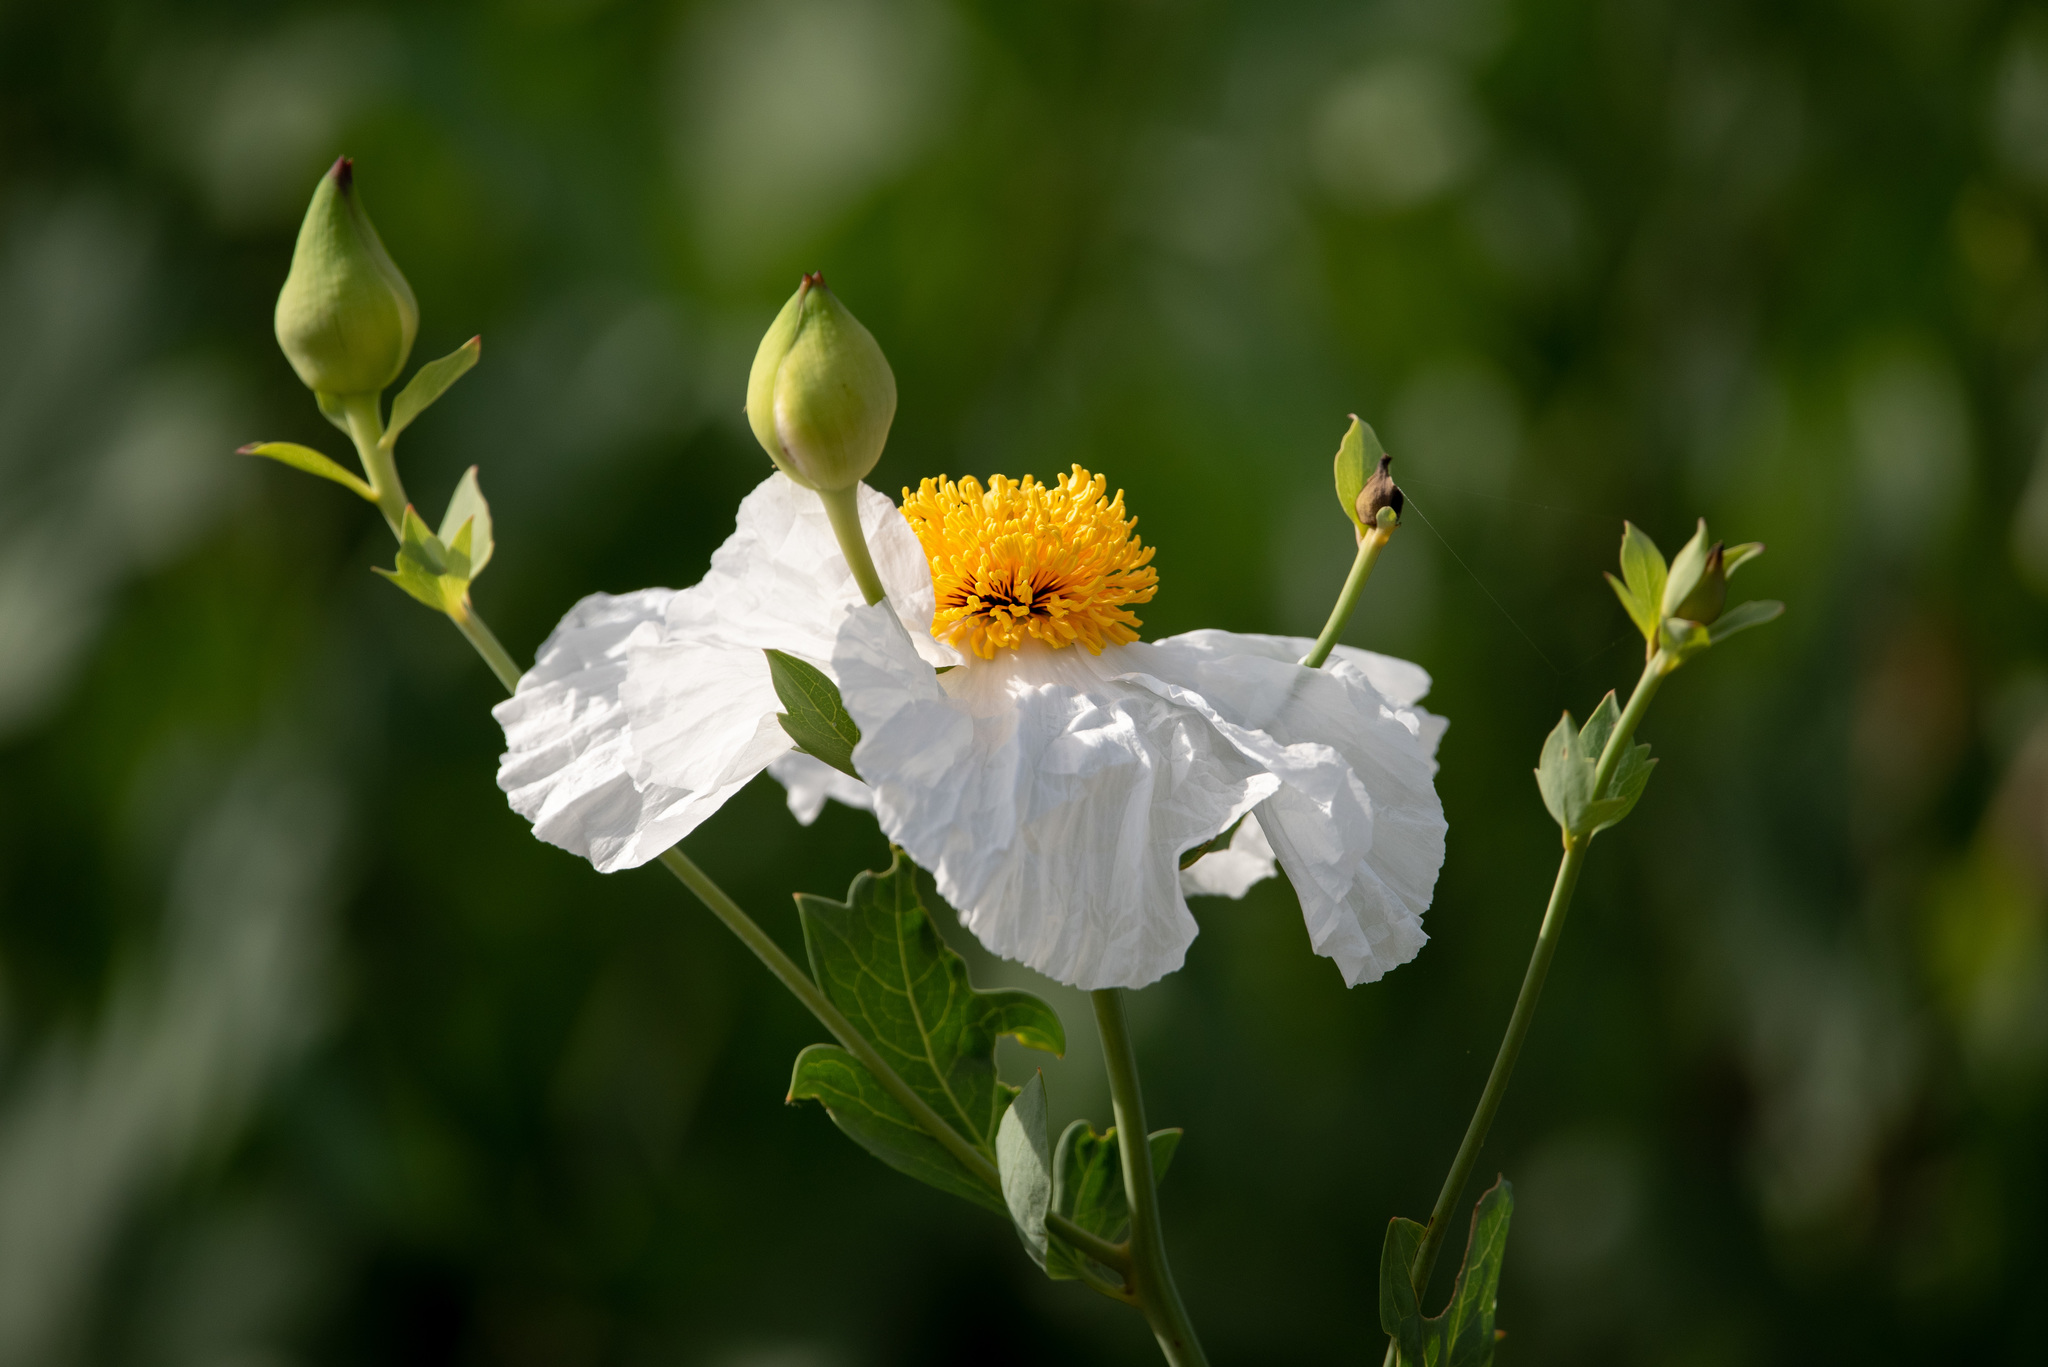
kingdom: Plantae
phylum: Tracheophyta
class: Magnoliopsida
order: Ranunculales
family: Papaveraceae
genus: Romneya
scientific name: Romneya coulteri
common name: California tree-poppy
